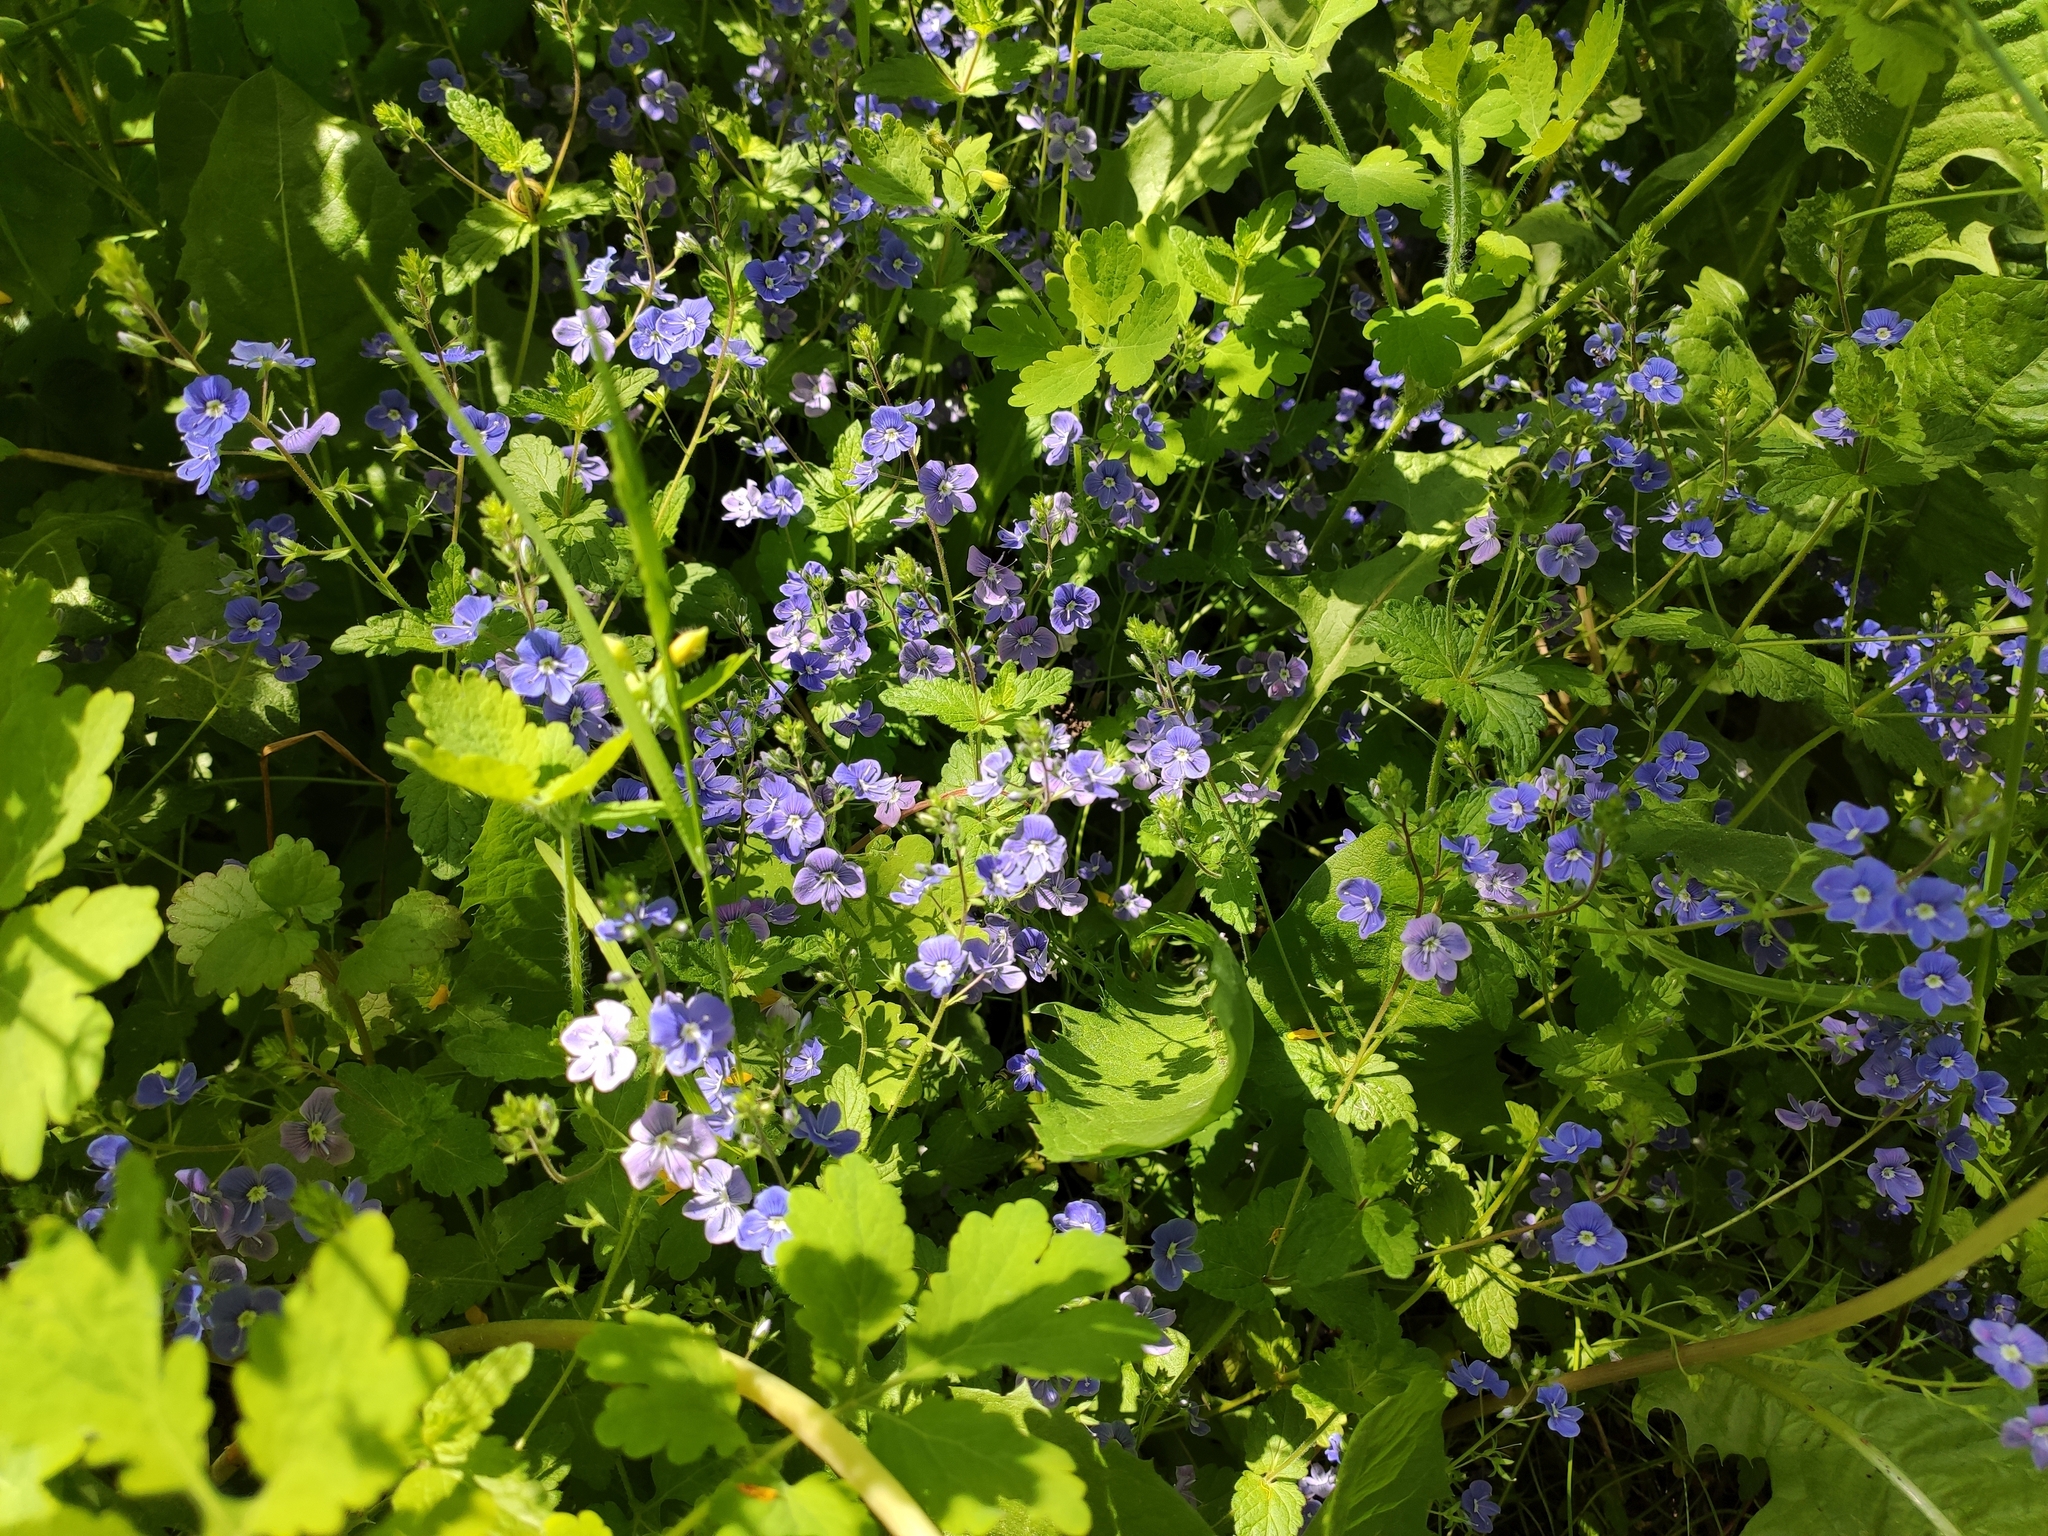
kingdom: Plantae
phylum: Tracheophyta
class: Magnoliopsida
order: Lamiales
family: Plantaginaceae
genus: Veronica
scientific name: Veronica chamaedrys
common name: Germander speedwell
